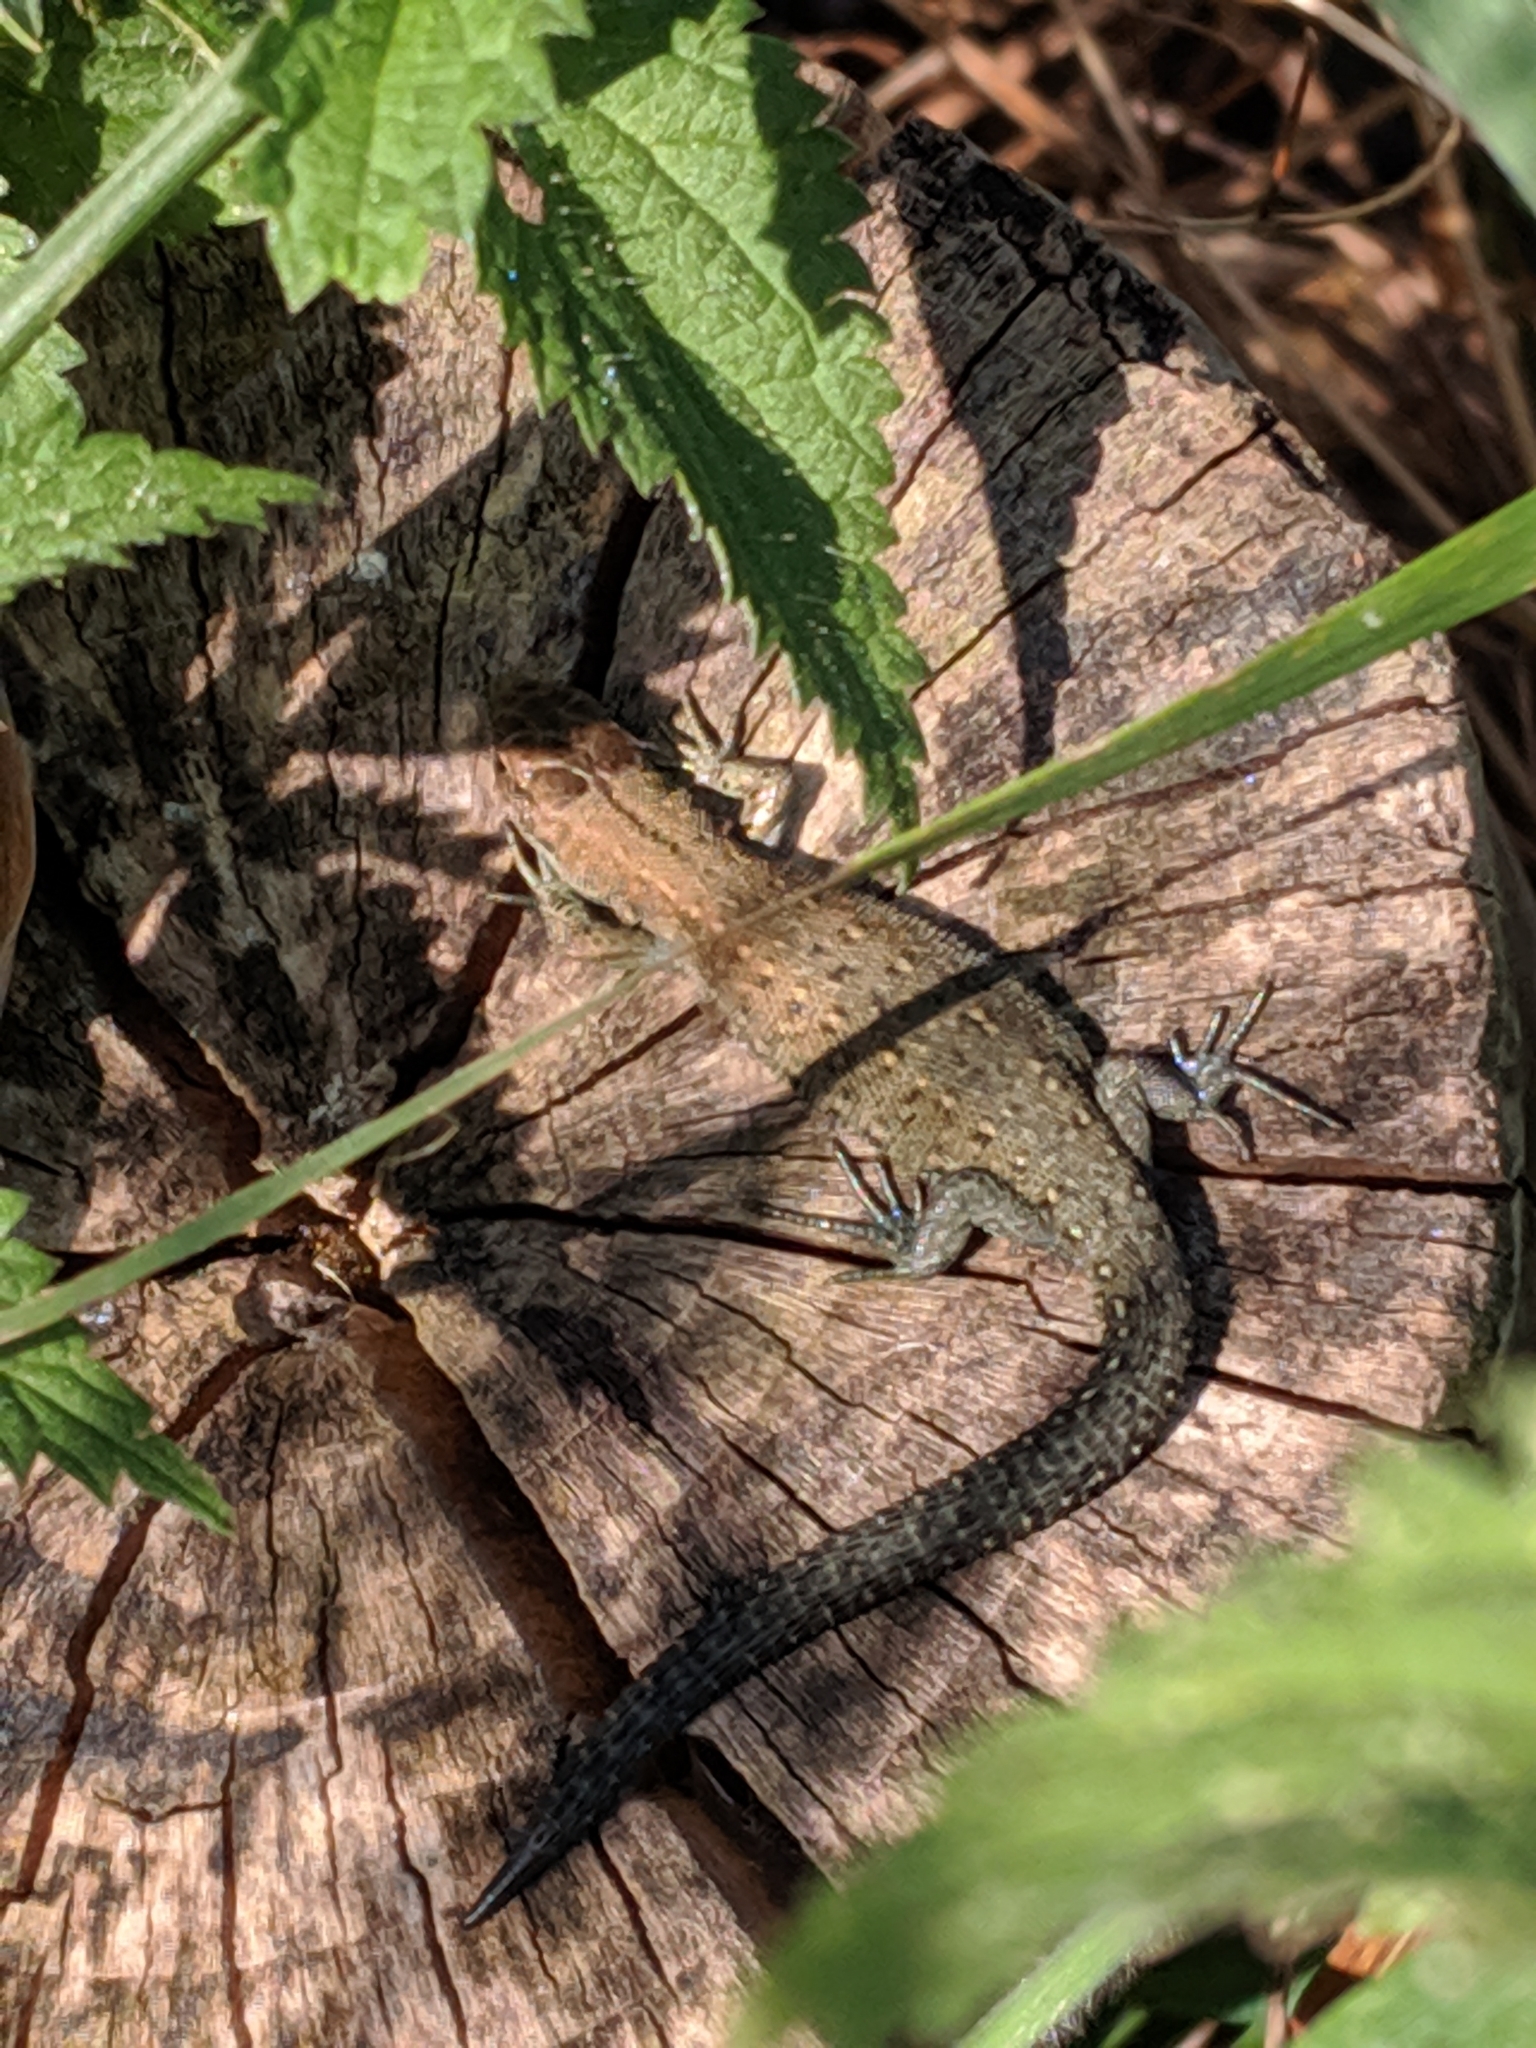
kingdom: Animalia
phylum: Chordata
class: Squamata
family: Lacertidae
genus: Zootoca
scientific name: Zootoca vivipara
